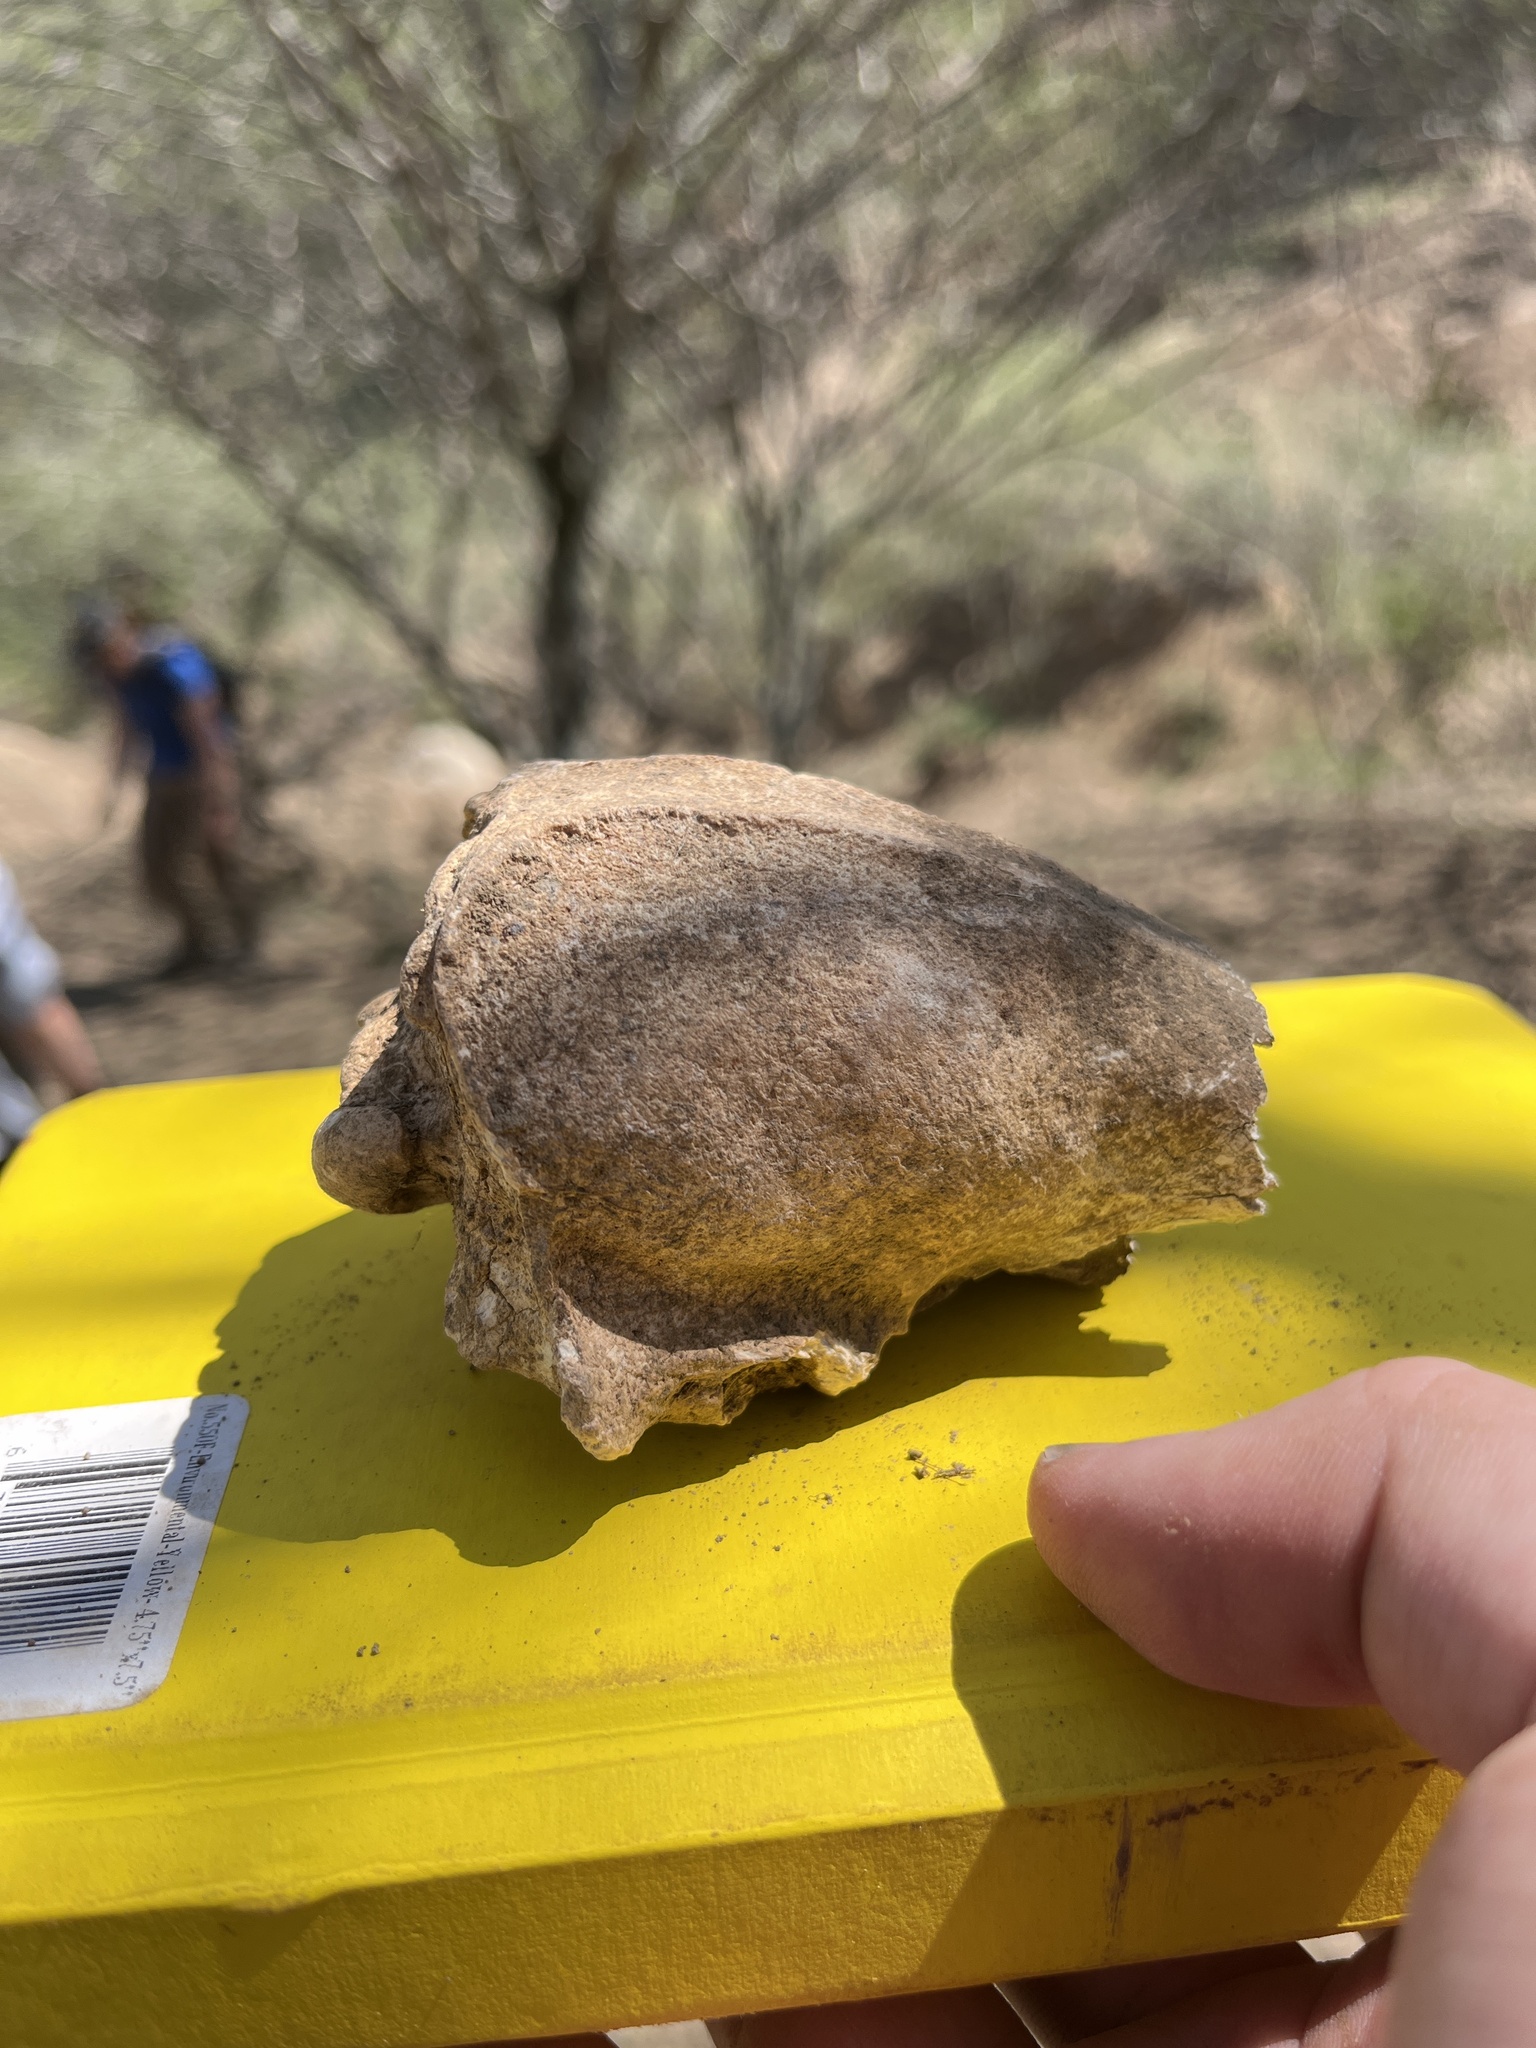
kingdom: Animalia
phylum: Chordata
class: Mammalia
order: Carnivora
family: Mustelidae
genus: Mellivora
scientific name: Mellivora capensis
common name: Honey badger
